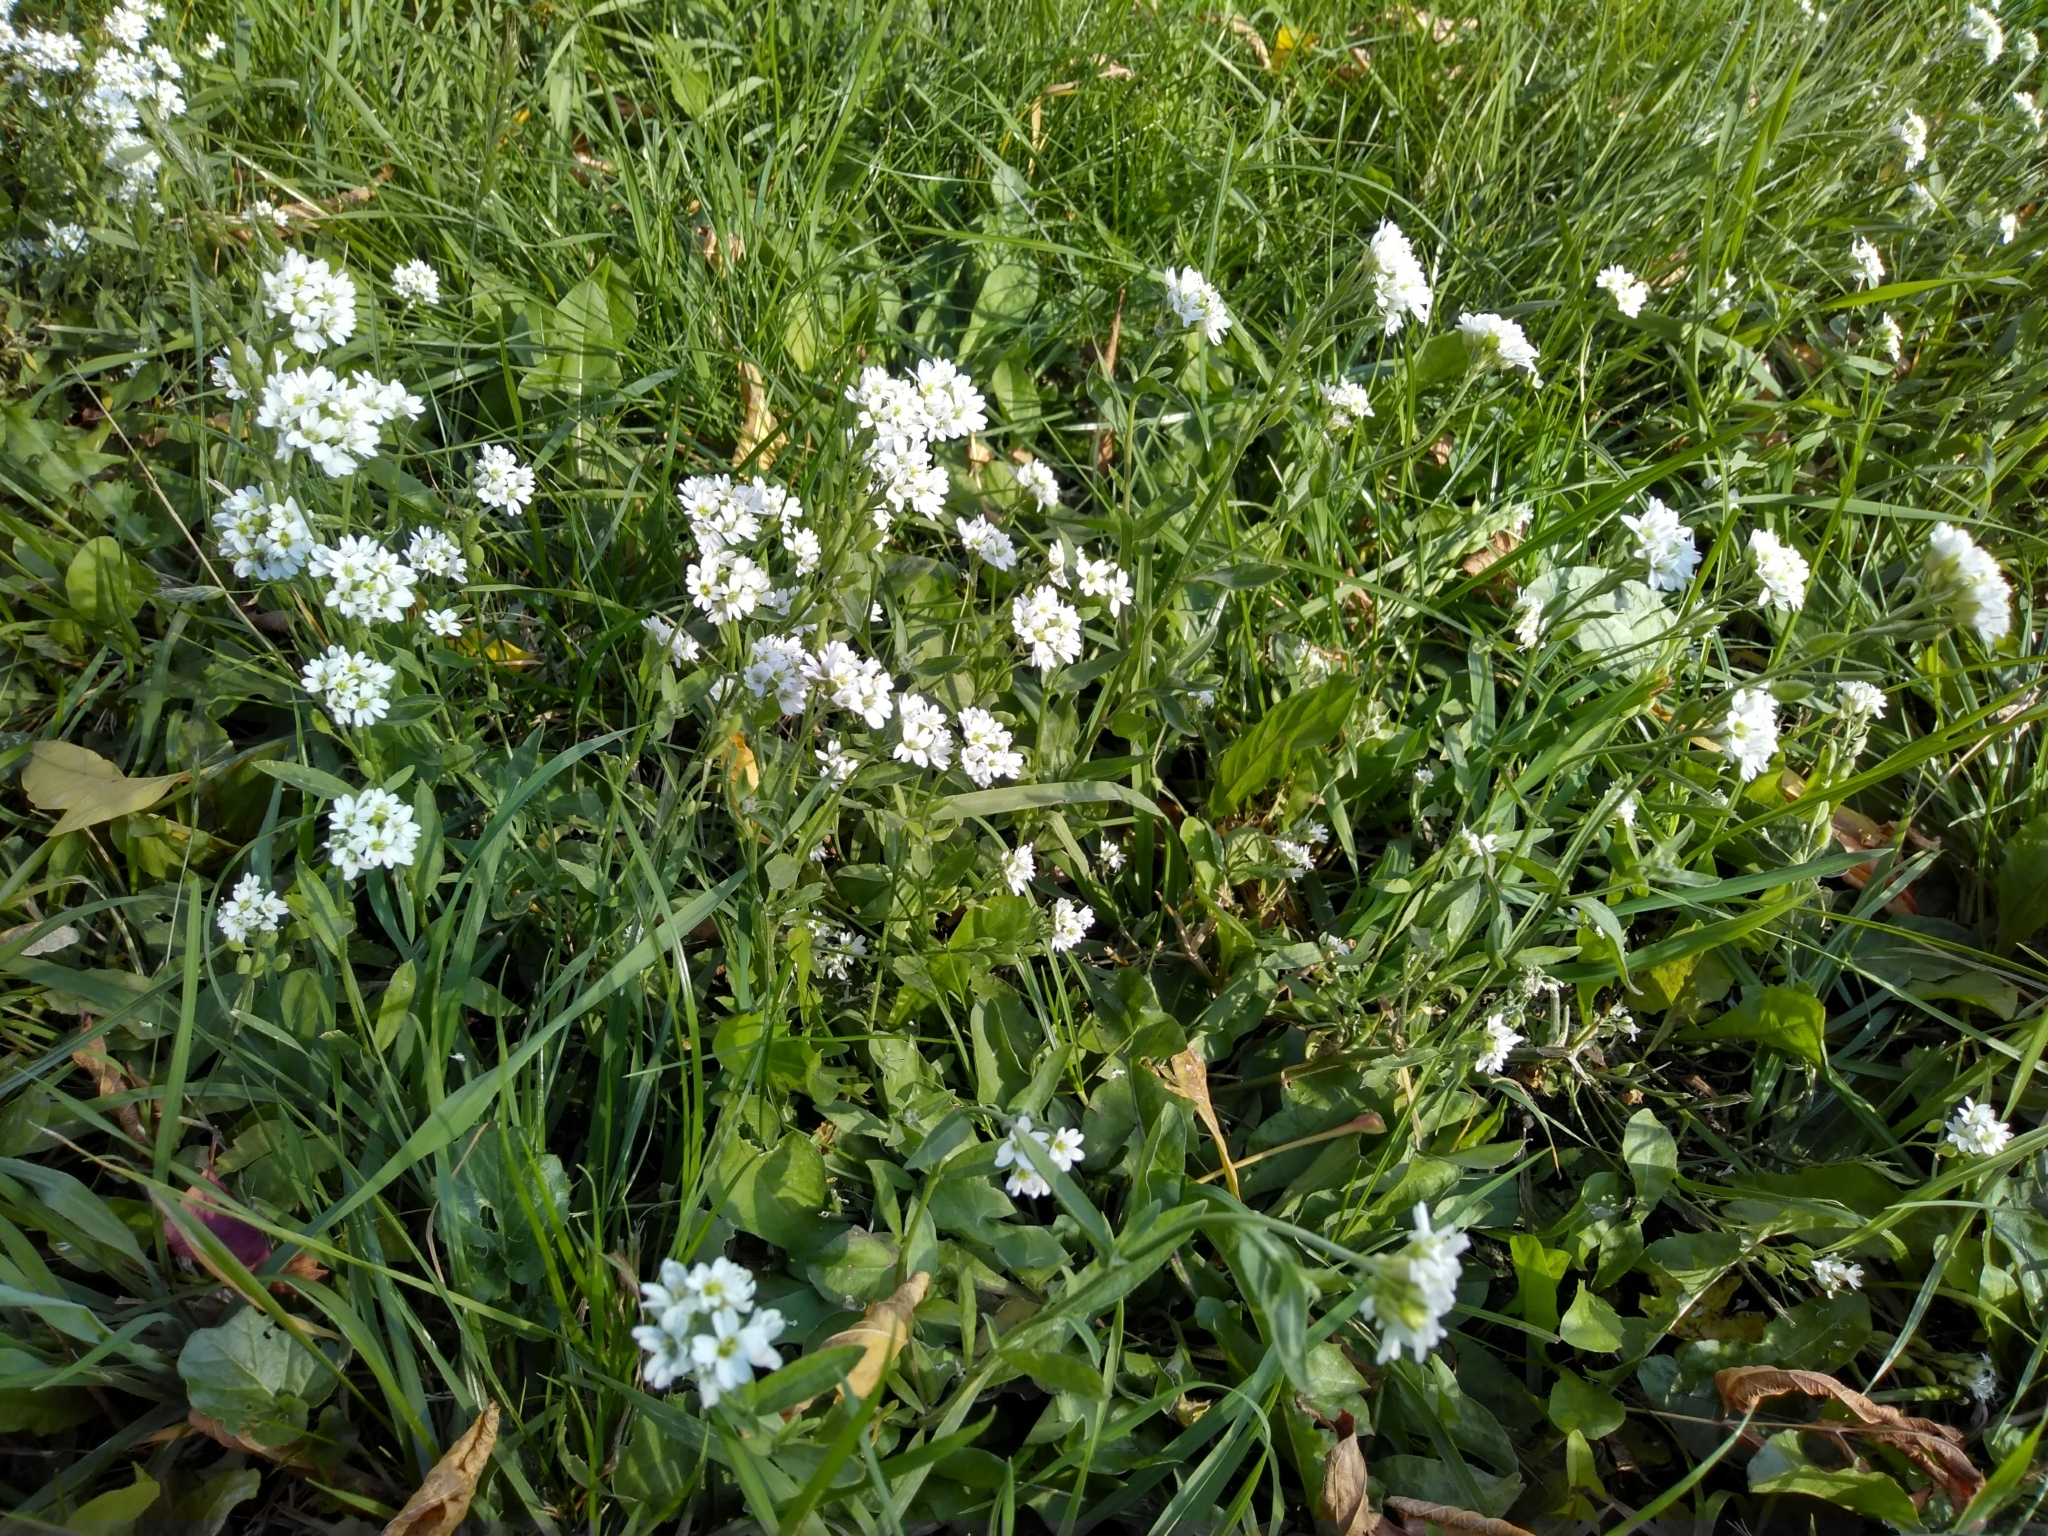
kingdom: Plantae
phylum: Tracheophyta
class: Magnoliopsida
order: Brassicales
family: Brassicaceae
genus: Berteroa
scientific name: Berteroa incana
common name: Hoary alison
